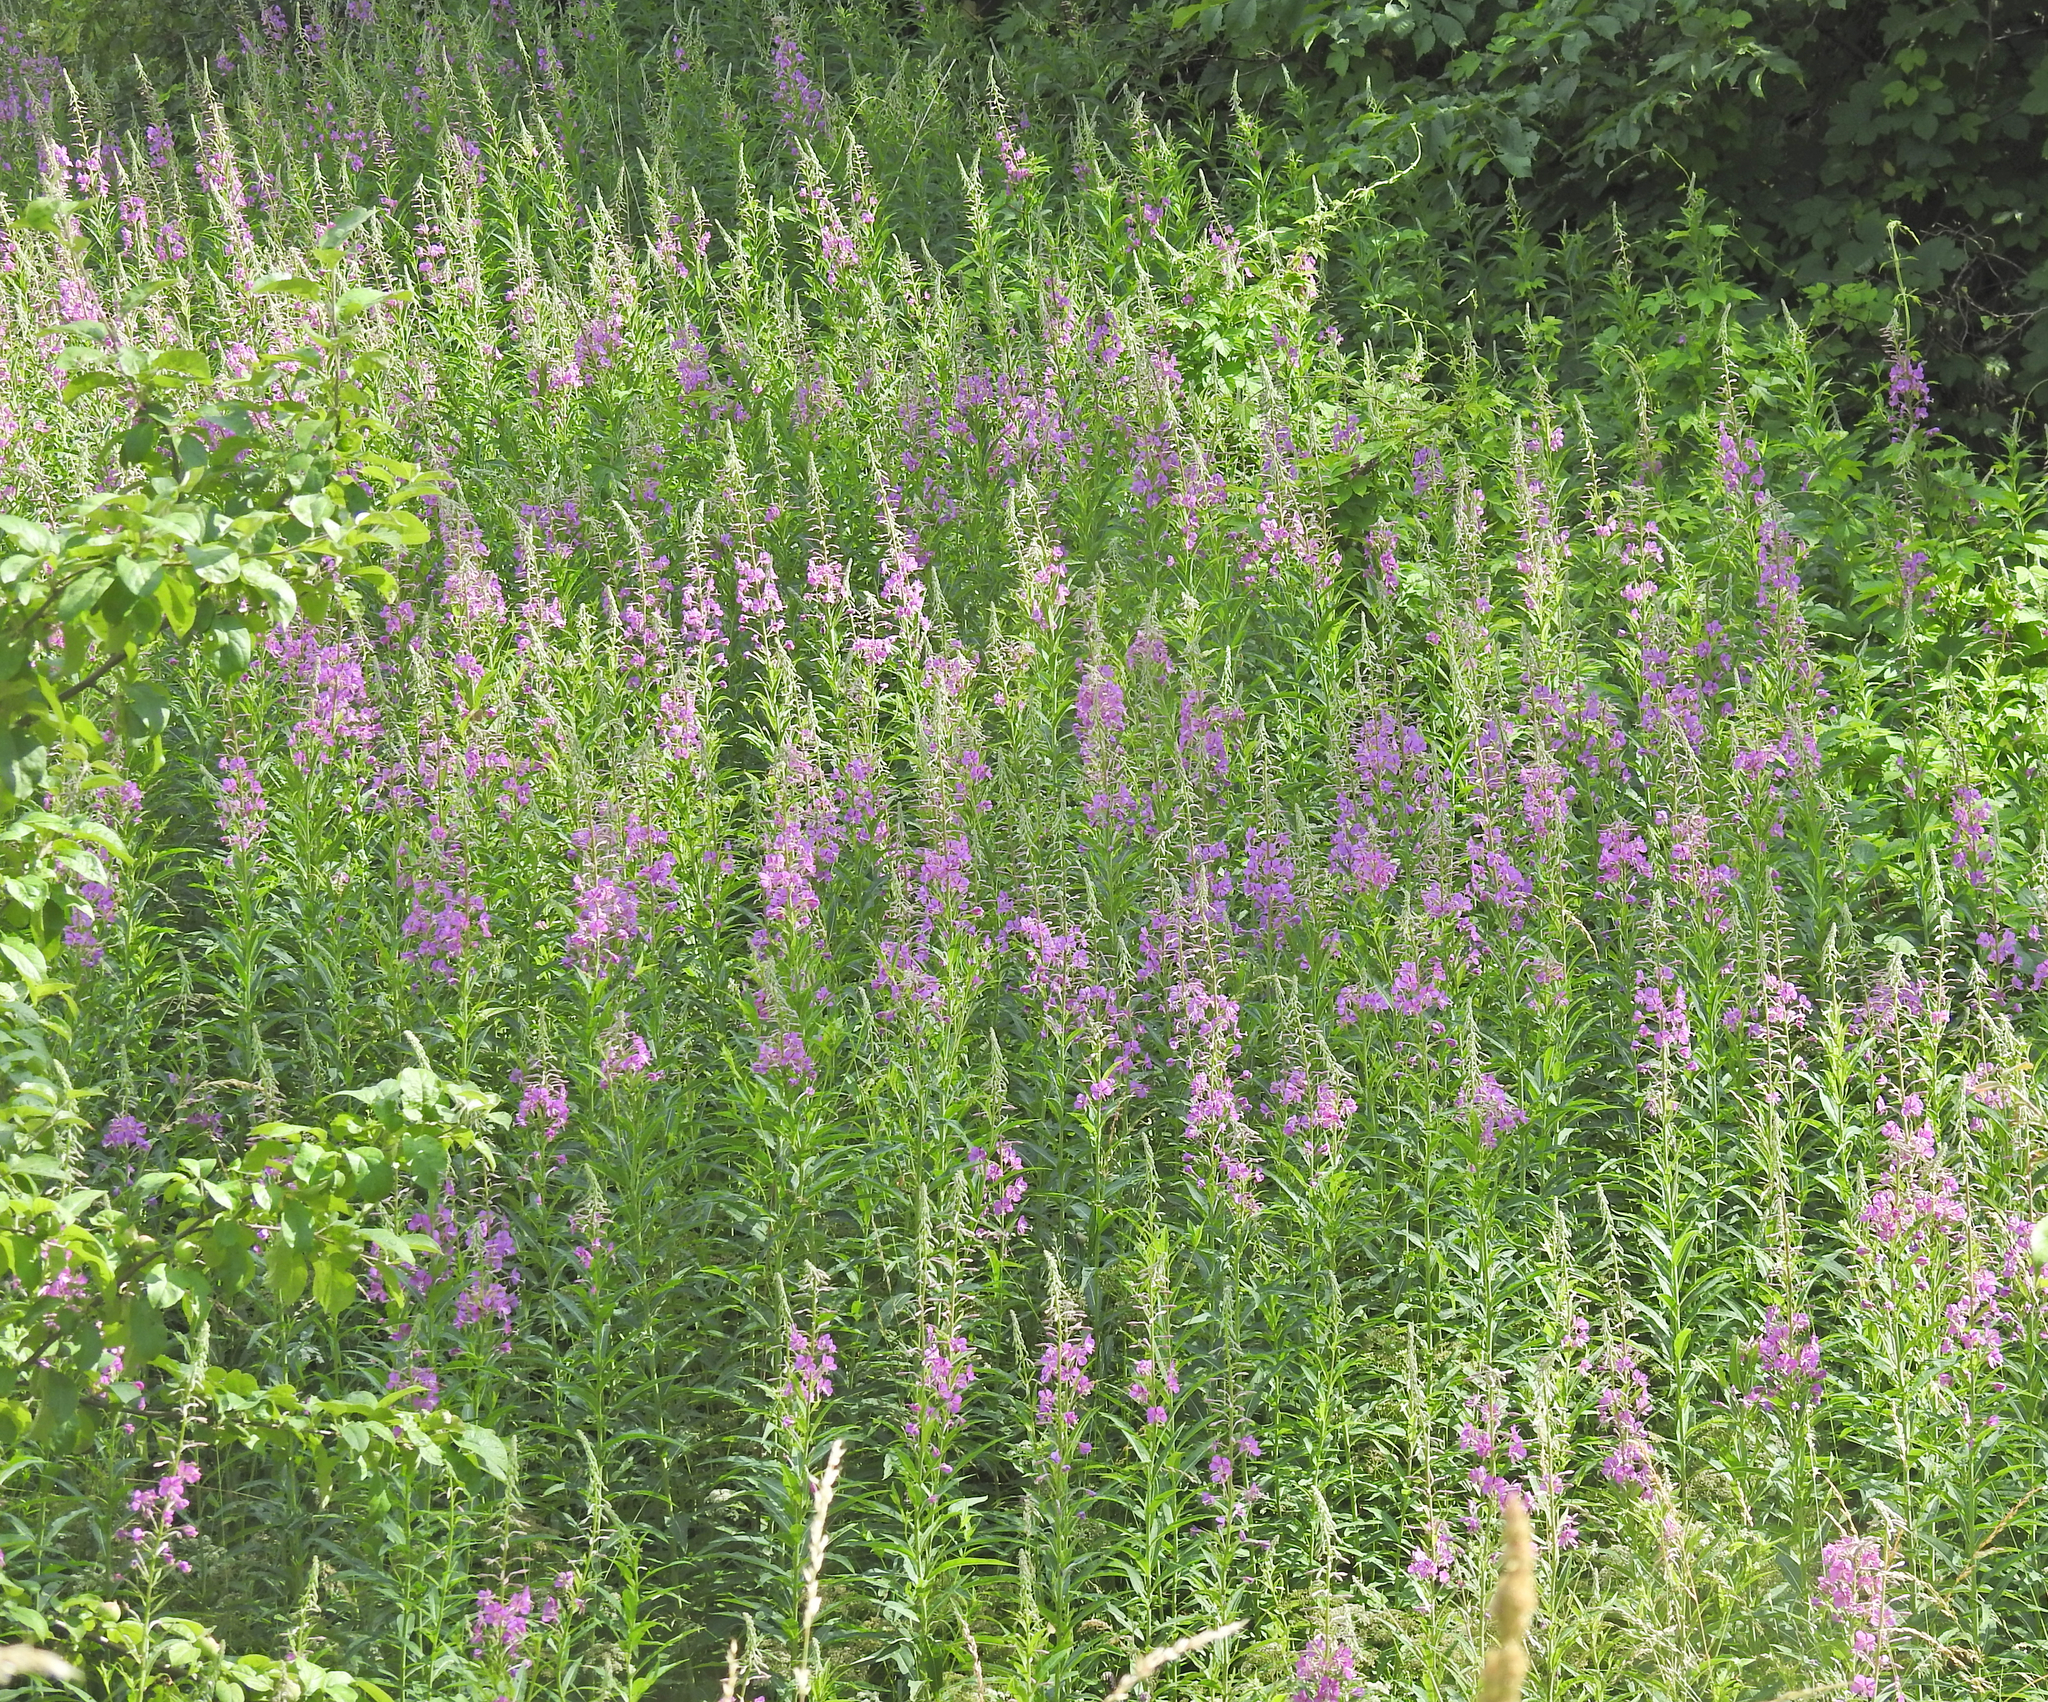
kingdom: Plantae
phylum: Tracheophyta
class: Magnoliopsida
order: Myrtales
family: Onagraceae
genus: Chamaenerion
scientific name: Chamaenerion angustifolium
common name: Fireweed
